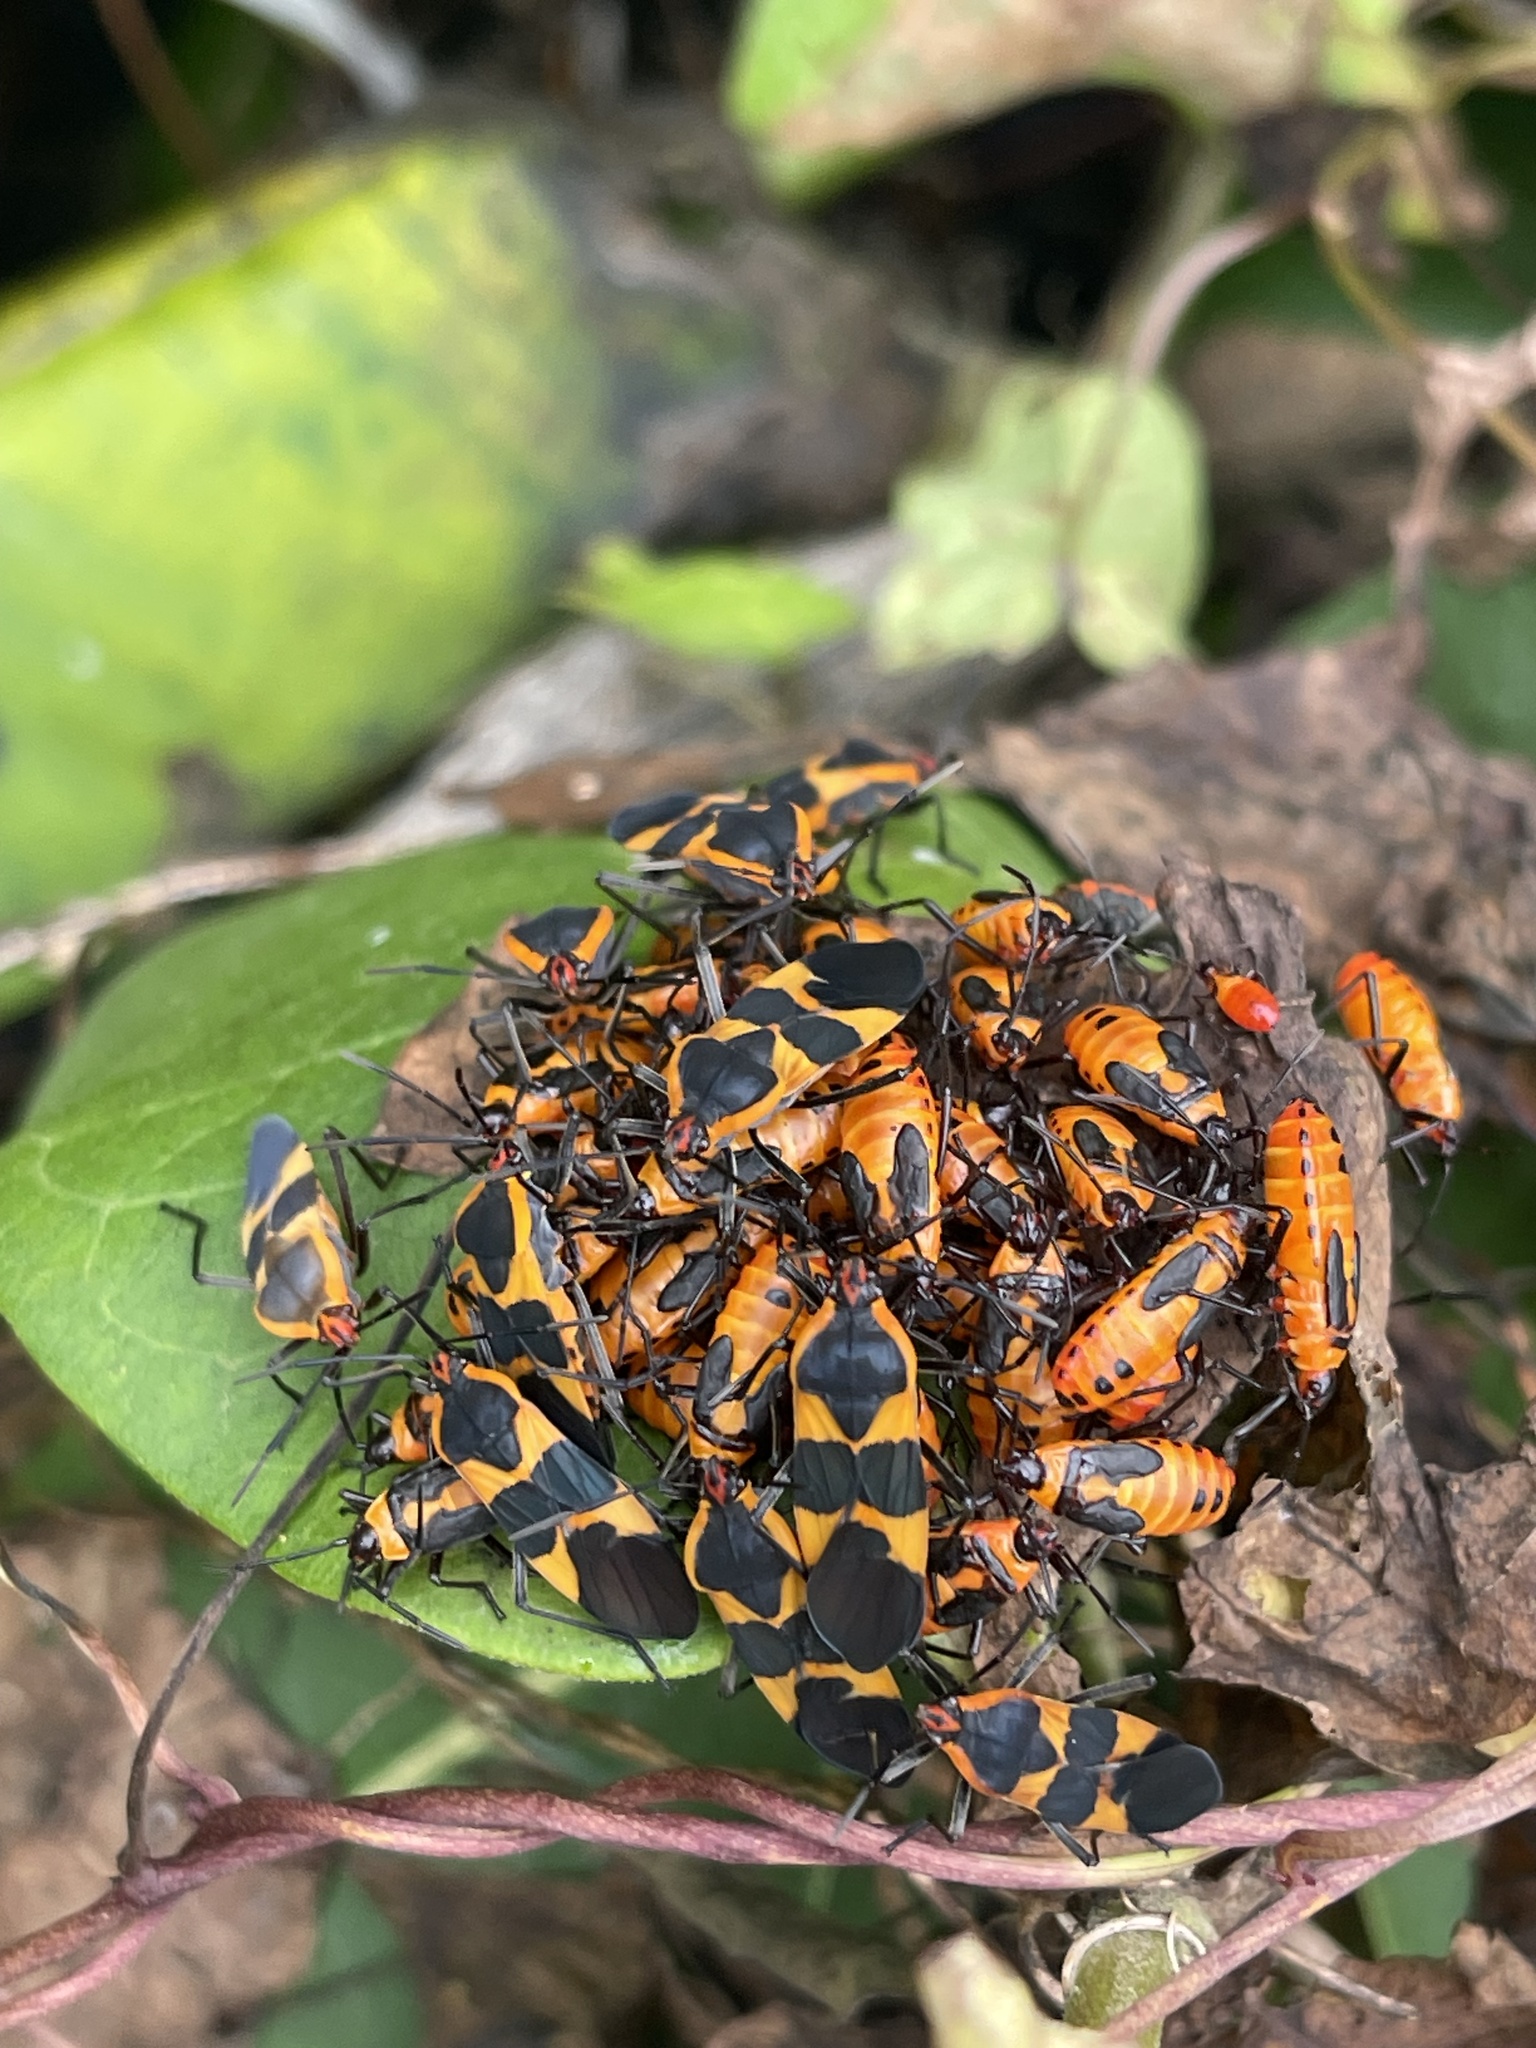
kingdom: Animalia
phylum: Arthropoda
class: Insecta
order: Hemiptera
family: Lygaeidae
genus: Oncopeltus
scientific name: Oncopeltus fasciatus
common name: Large milkweed bug
